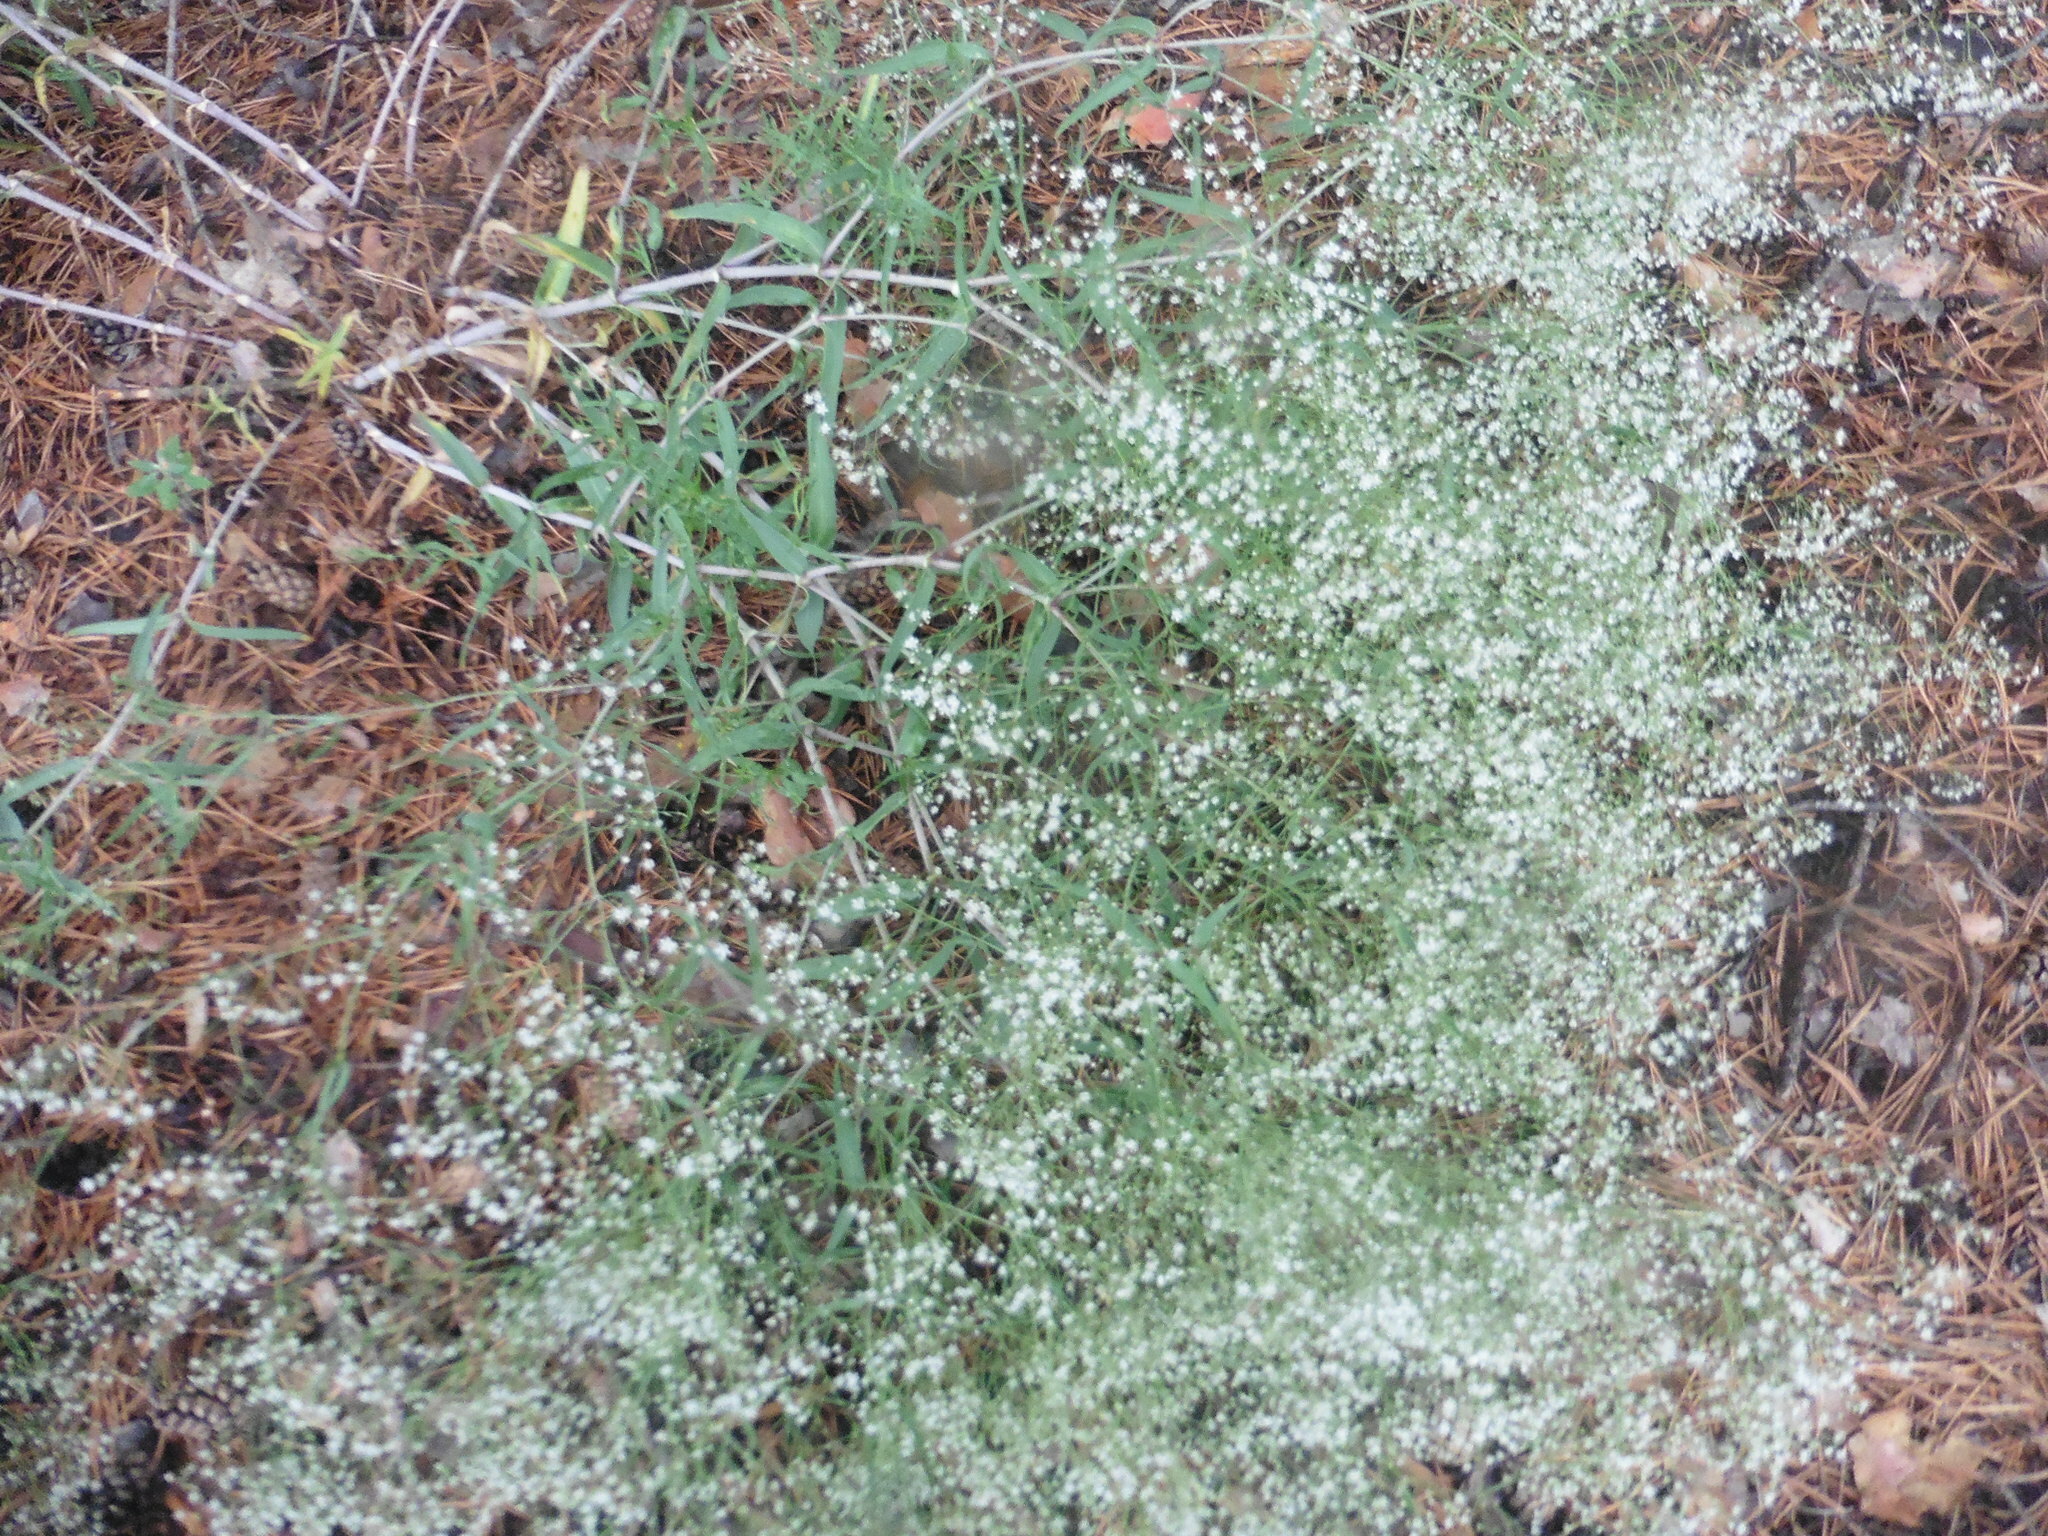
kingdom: Plantae
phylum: Tracheophyta
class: Magnoliopsida
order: Caryophyllales
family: Caryophyllaceae
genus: Gypsophila
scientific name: Gypsophila paniculata
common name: Baby's-breath
